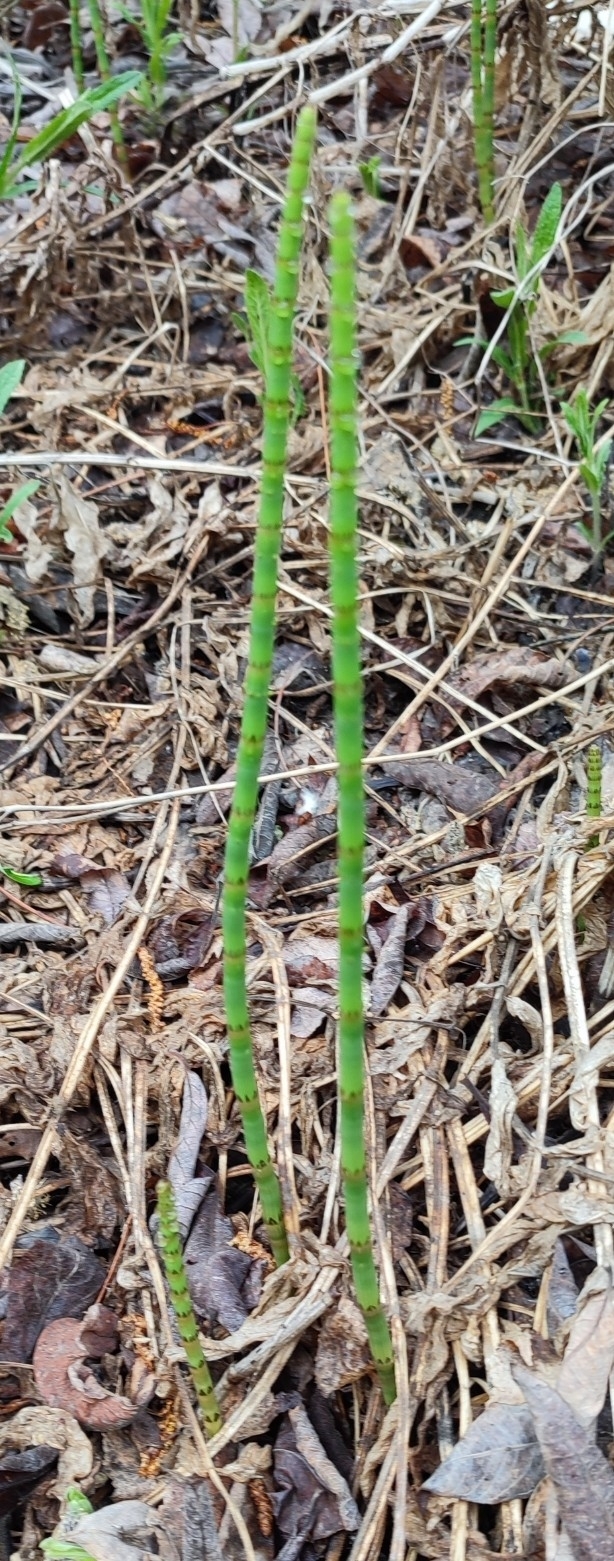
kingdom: Plantae
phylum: Tracheophyta
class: Polypodiopsida
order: Equisetales
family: Equisetaceae
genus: Equisetum
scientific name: Equisetum fluviatile
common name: Water horsetail
